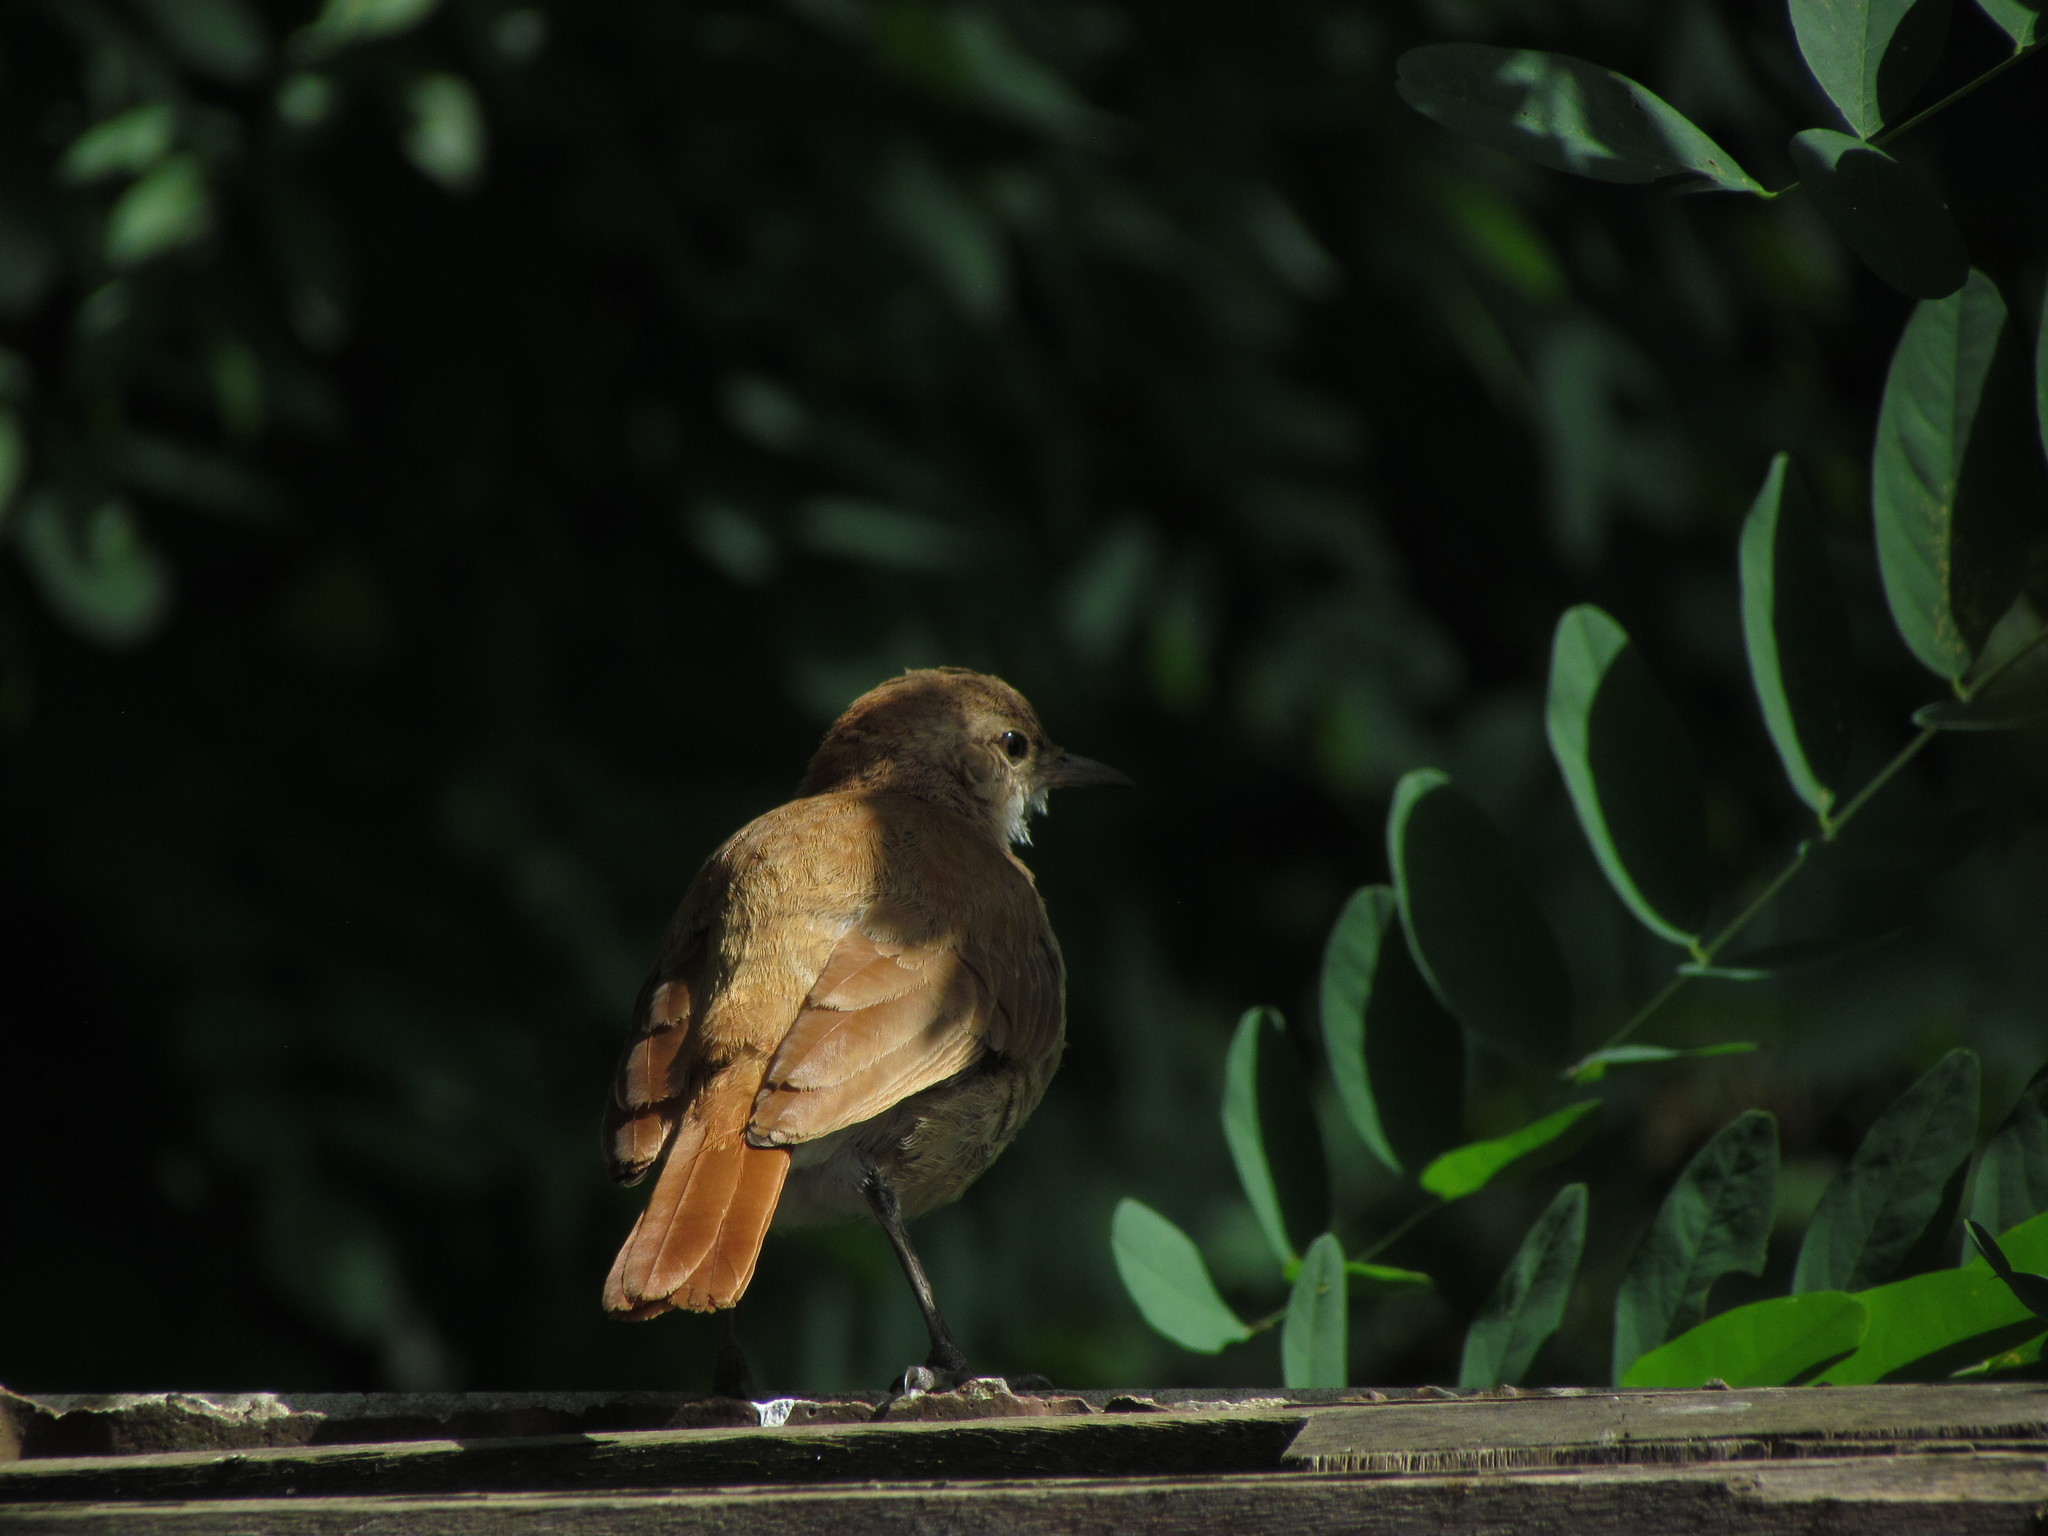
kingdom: Animalia
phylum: Chordata
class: Aves
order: Passeriformes
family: Furnariidae
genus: Furnarius
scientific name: Furnarius rufus
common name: Rufous hornero
